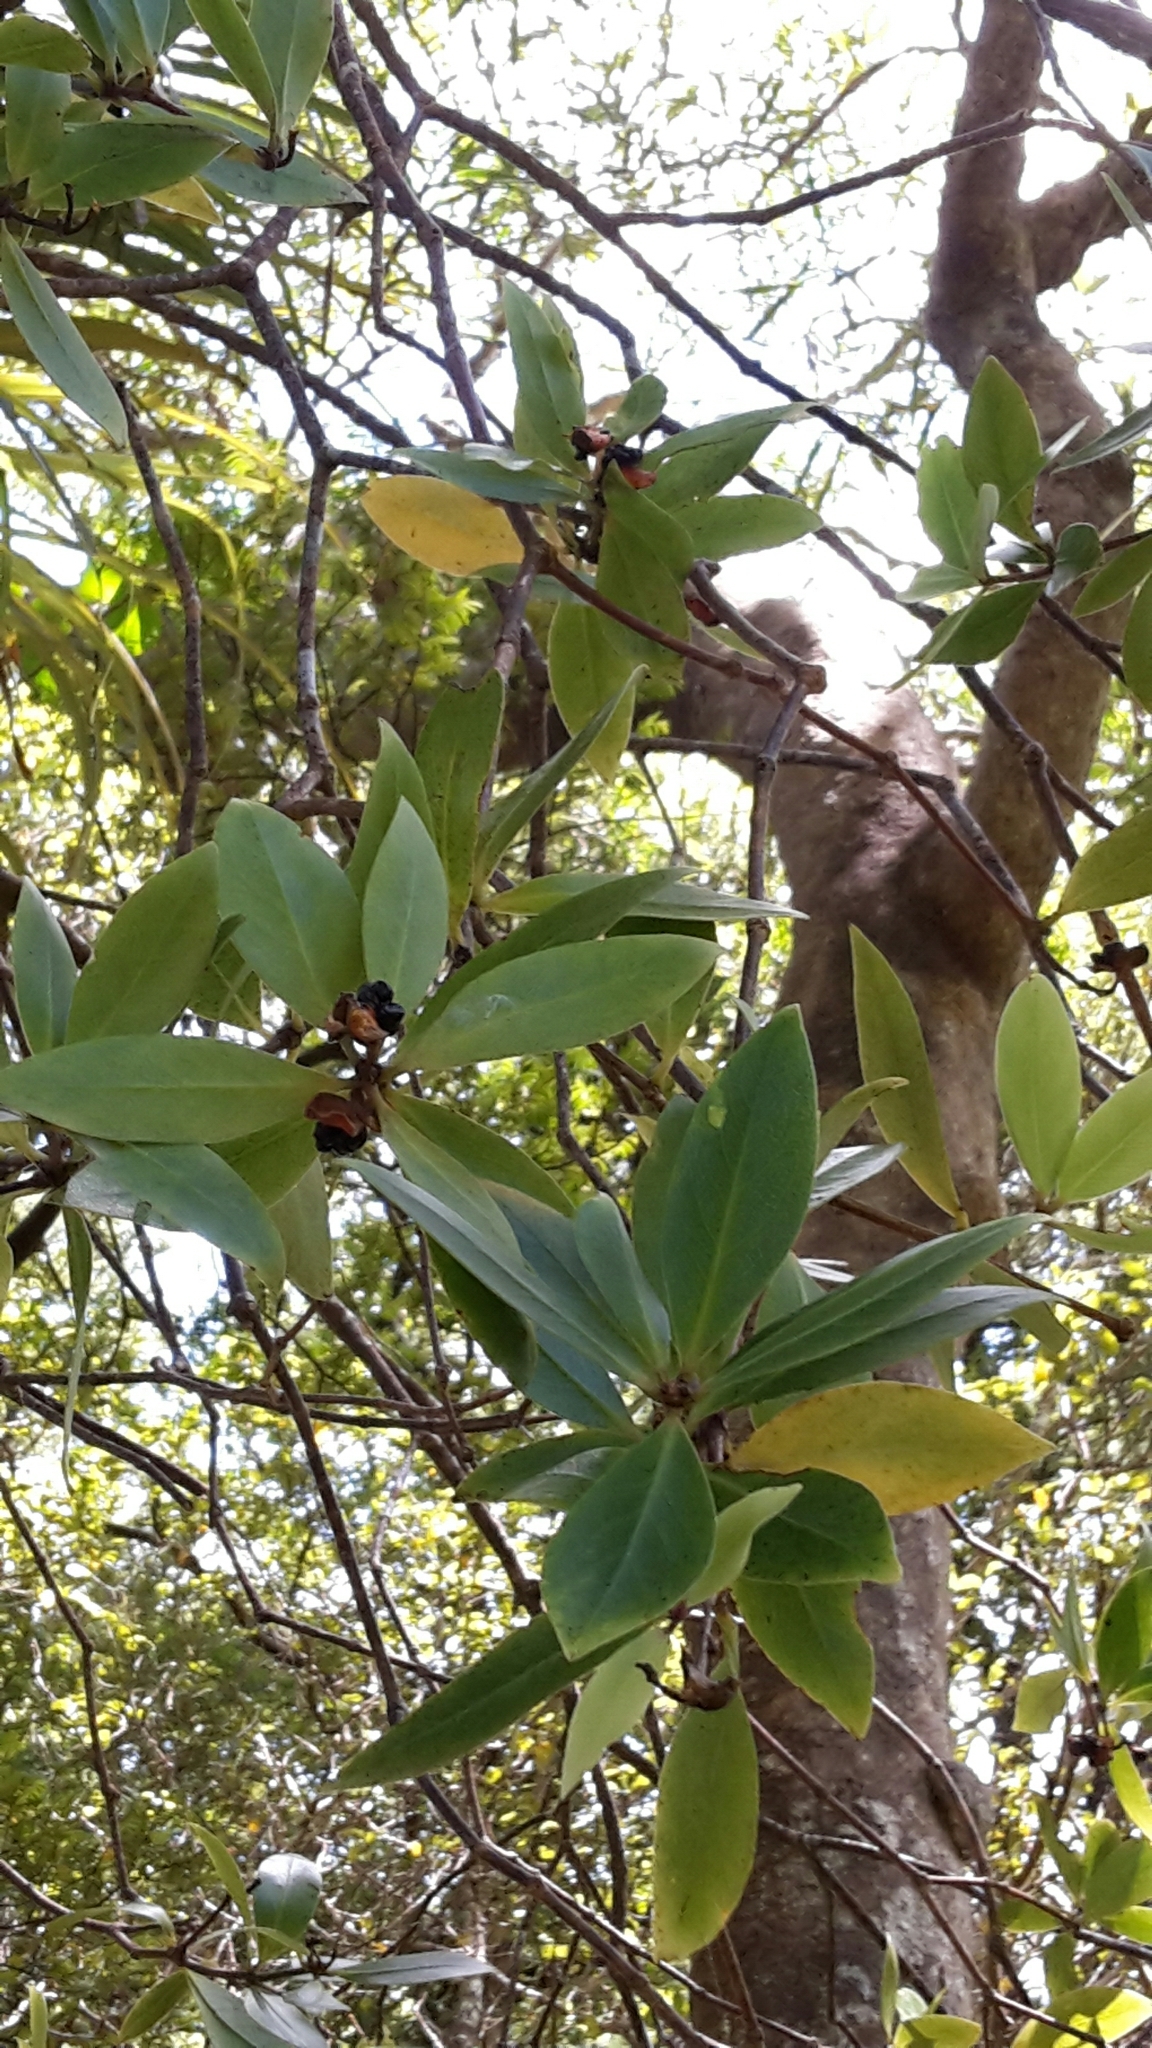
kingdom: Plantae
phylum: Tracheophyta
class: Magnoliopsida
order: Apiales
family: Pittosporaceae
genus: Pittosporum
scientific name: Pittosporum cornifolium
